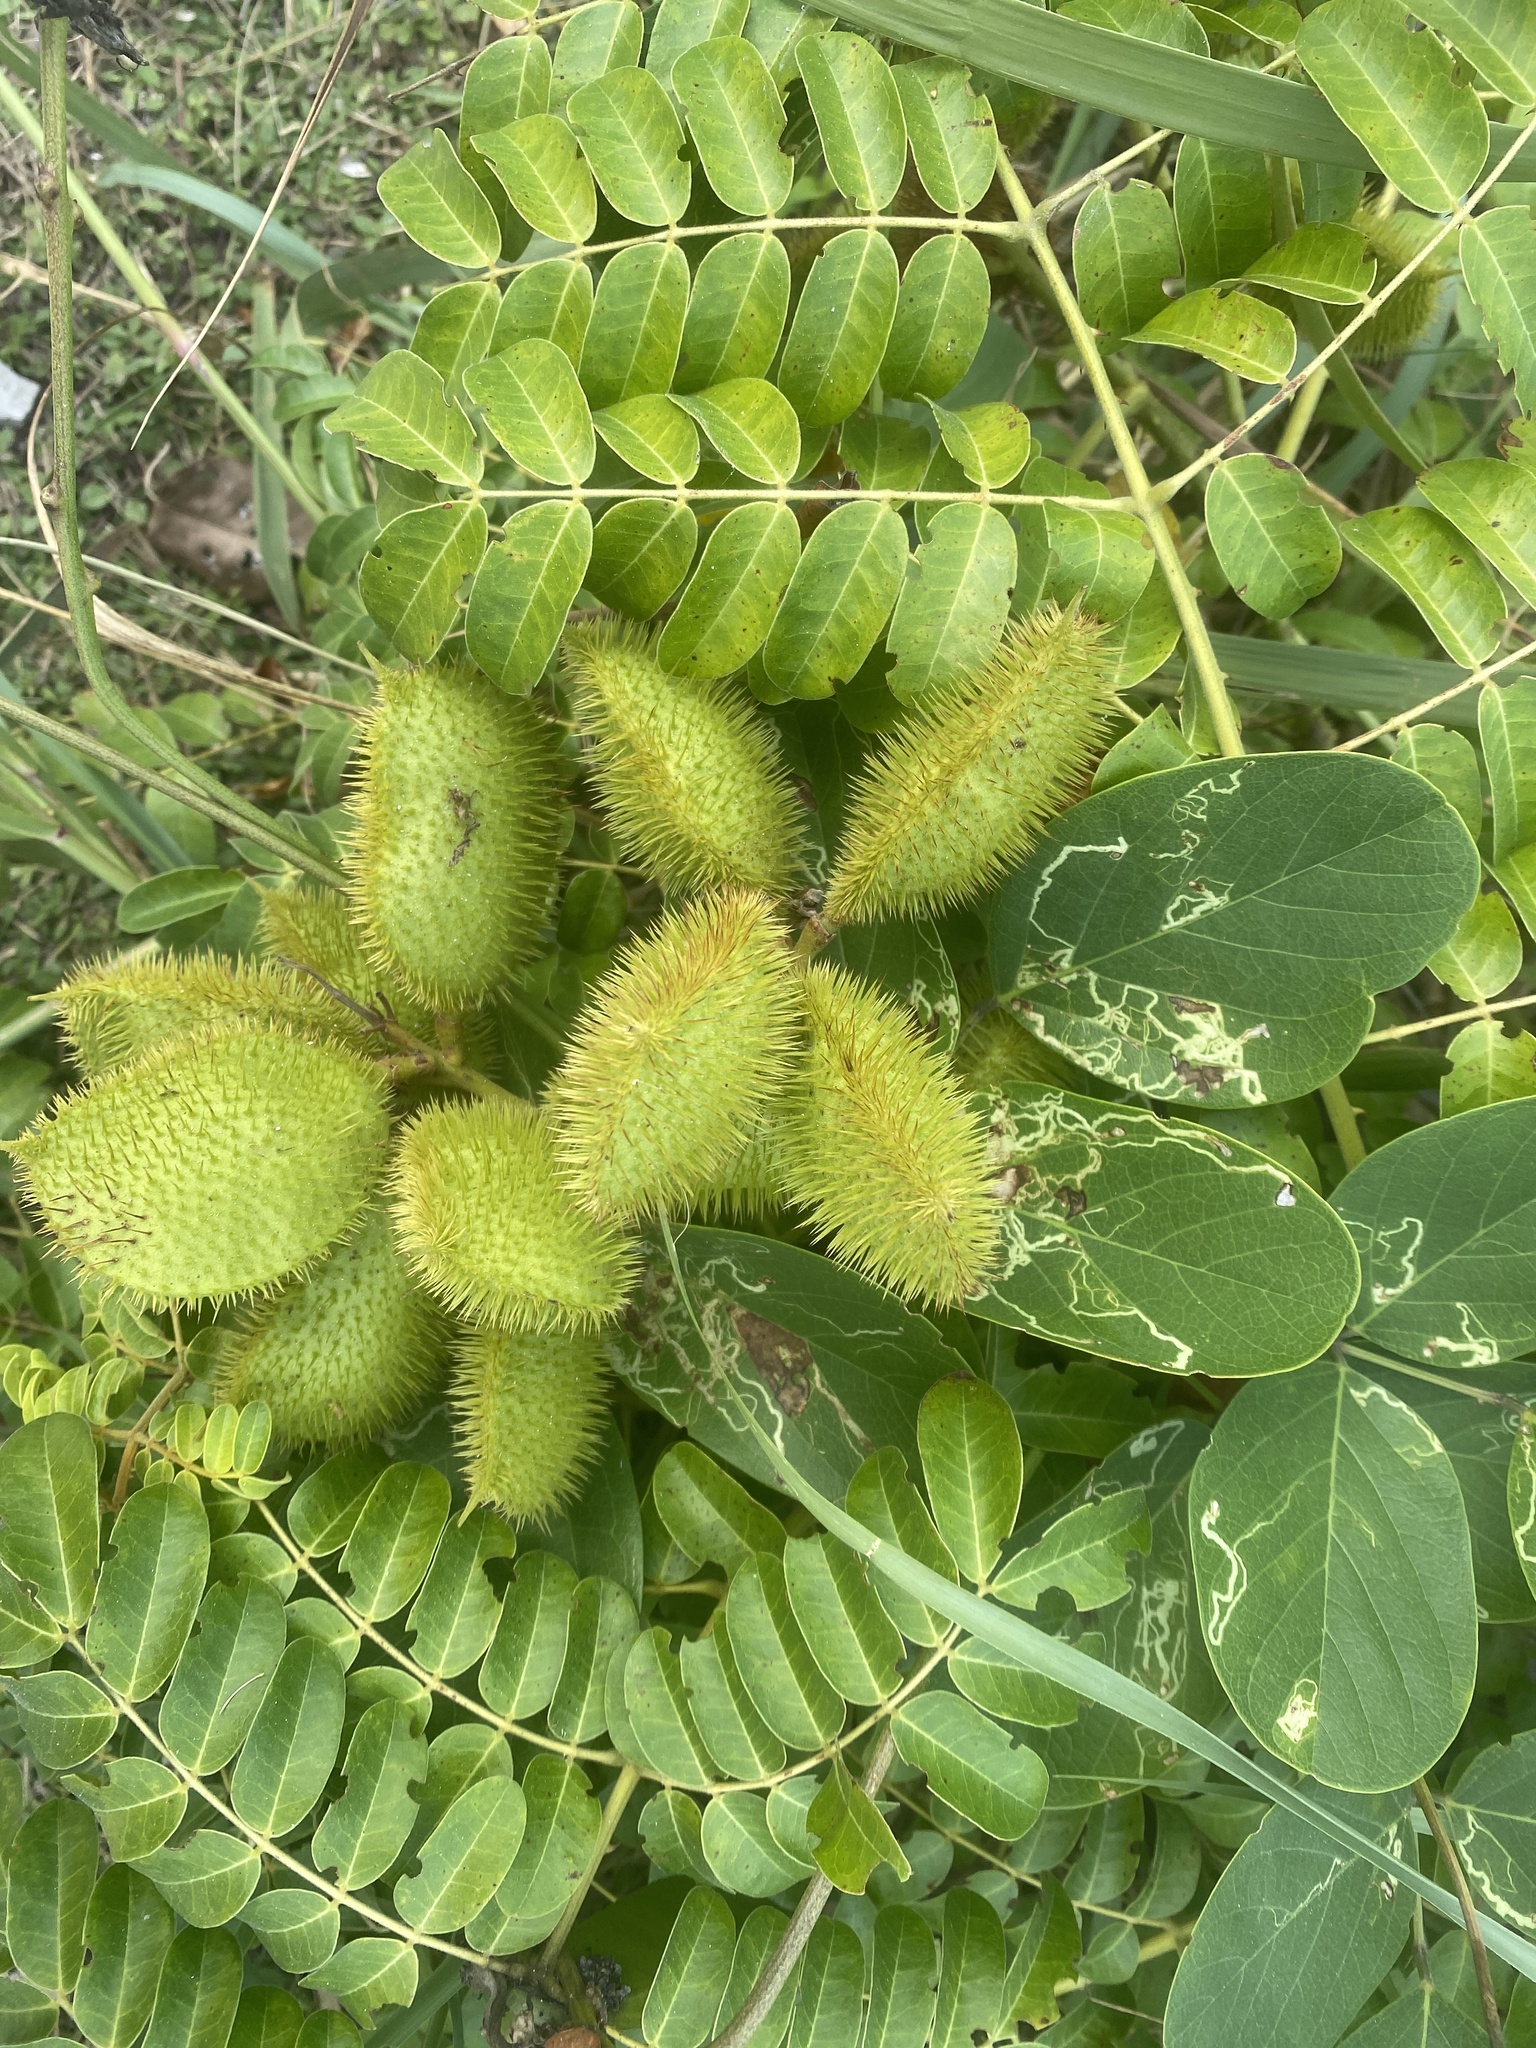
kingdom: Plantae
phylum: Tracheophyta
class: Magnoliopsida
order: Fabales
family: Fabaceae
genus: Guilandina
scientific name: Guilandina bonduc
